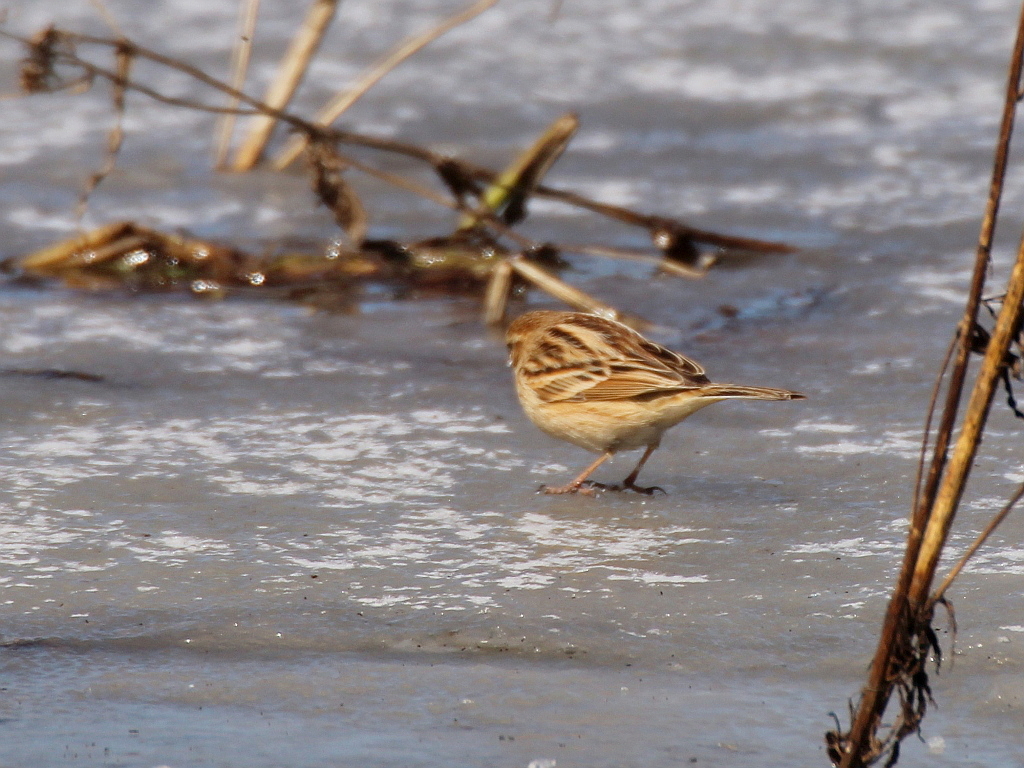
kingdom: Animalia
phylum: Chordata
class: Aves
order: Passeriformes
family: Emberizidae
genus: Emberiza
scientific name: Emberiza pallasi
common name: Pallas's reed bunting
